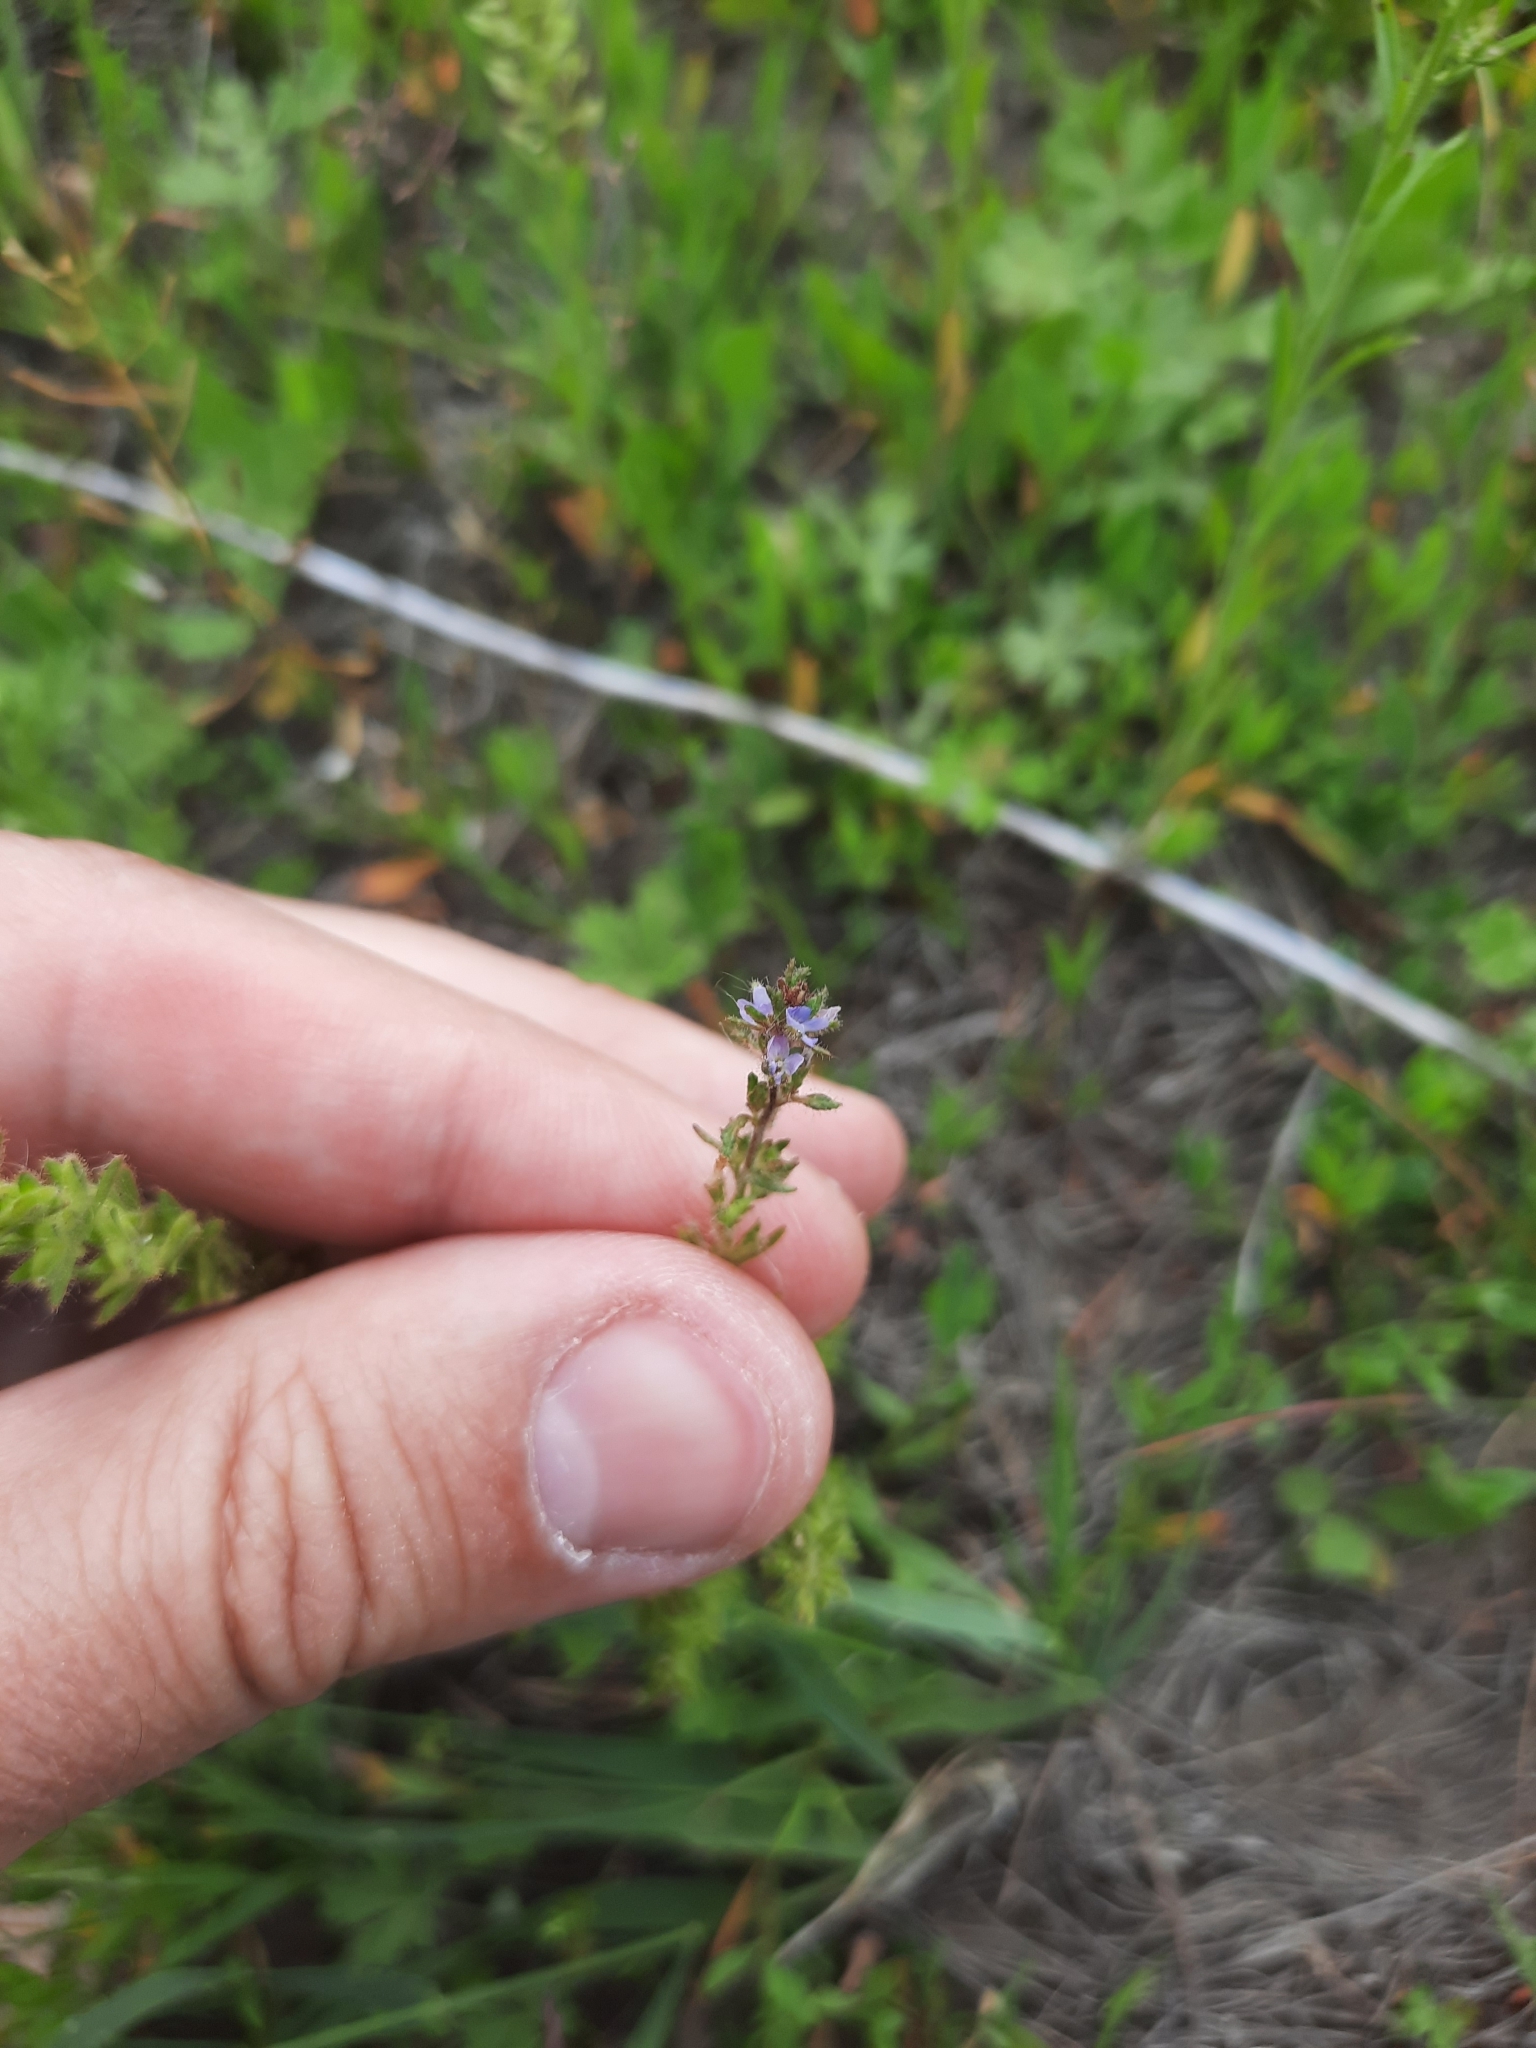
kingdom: Plantae
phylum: Tracheophyta
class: Magnoliopsida
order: Lamiales
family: Plantaginaceae
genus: Veronica
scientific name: Veronica verna
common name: Spring speedwell
